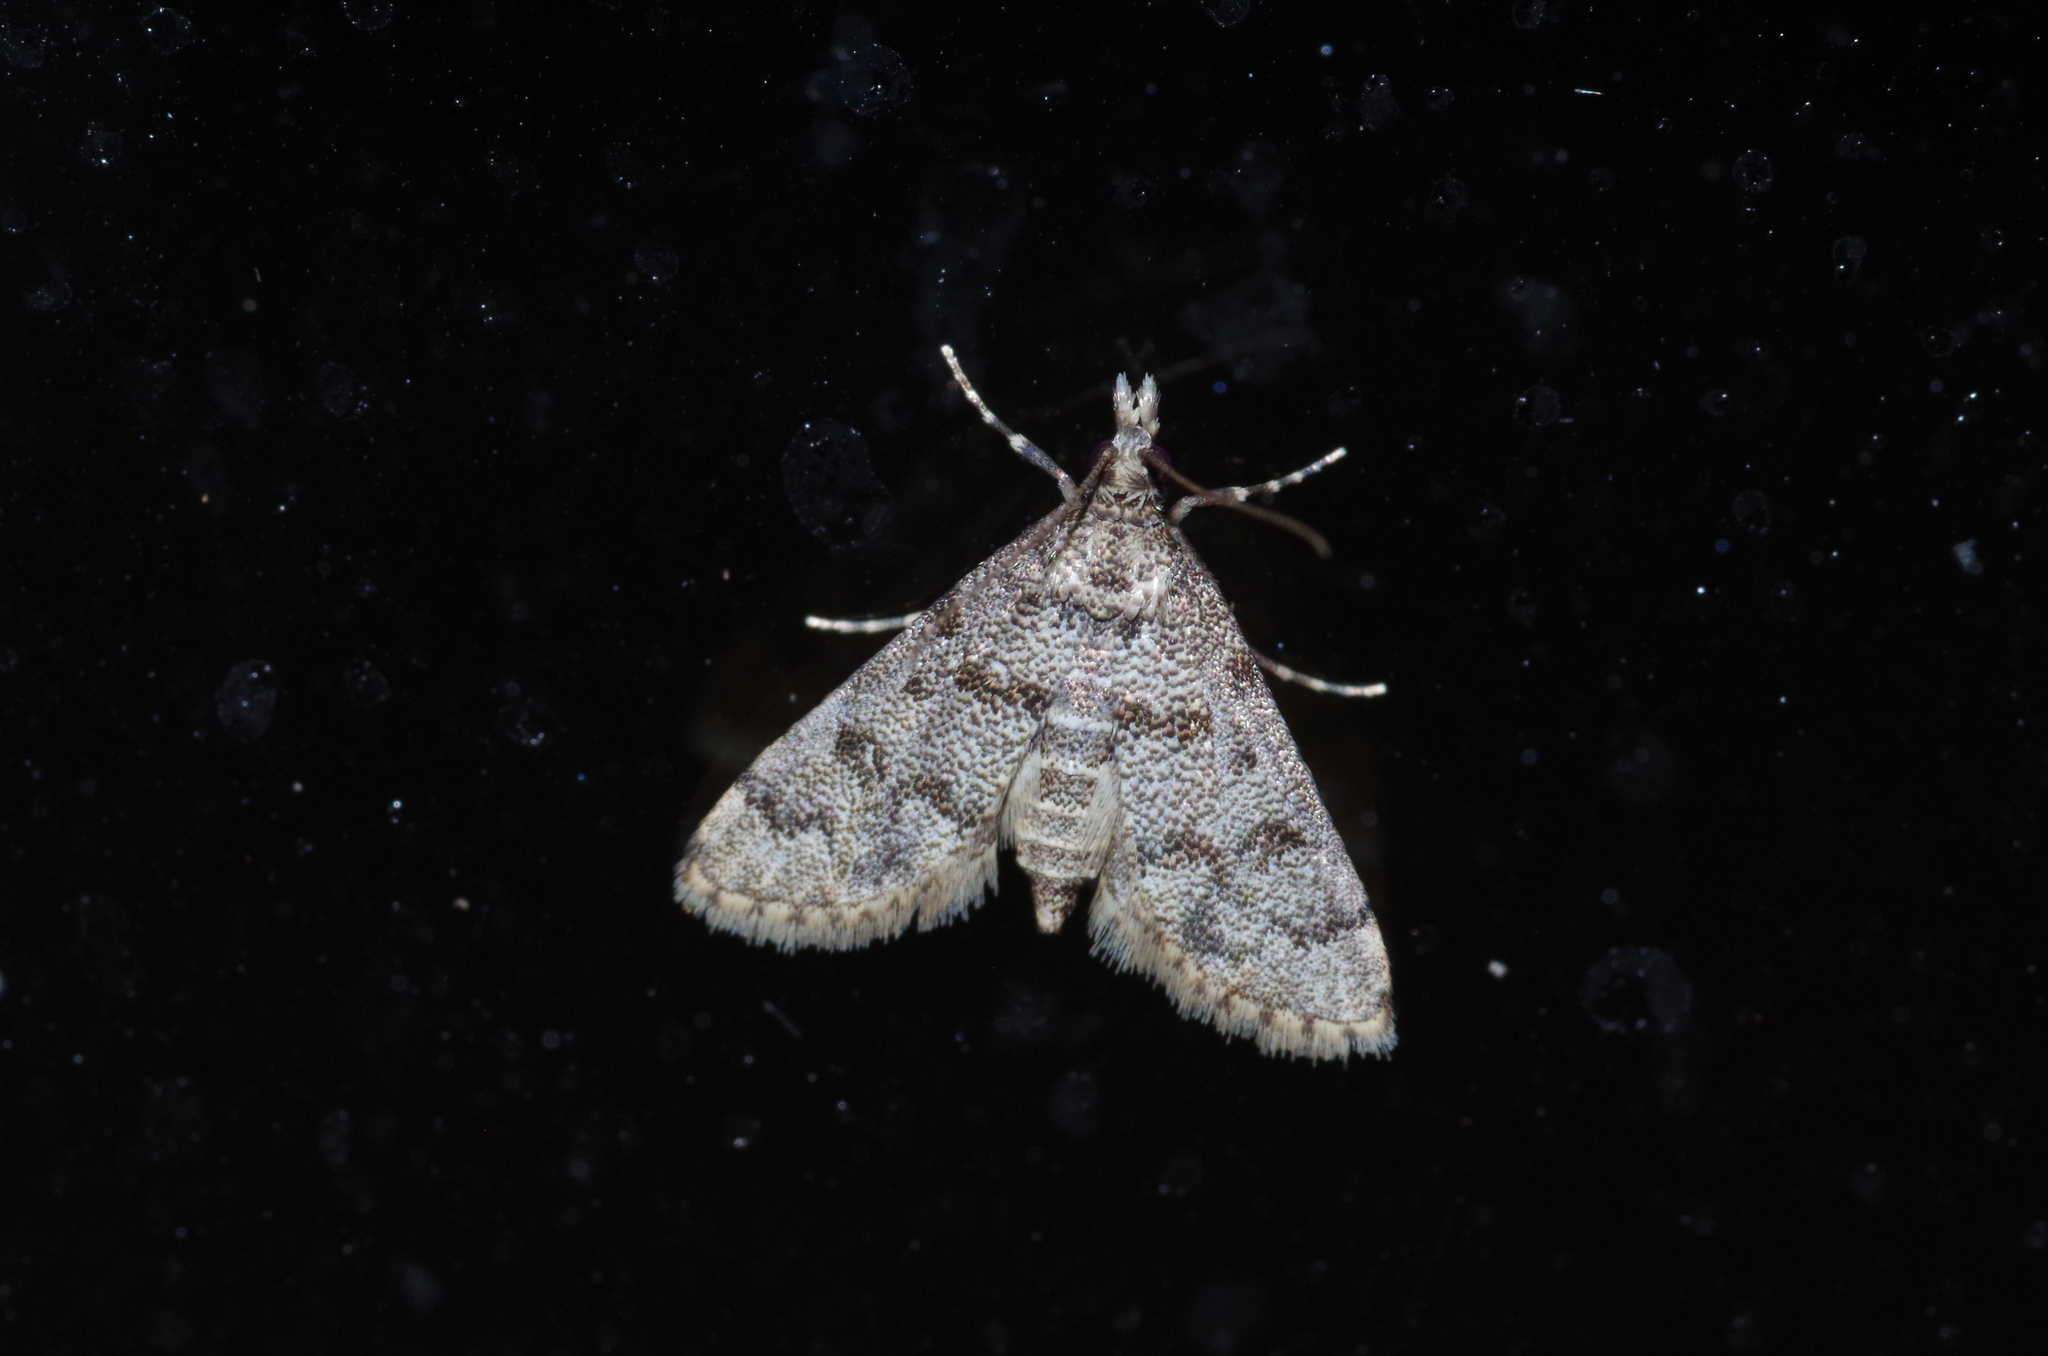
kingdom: Animalia
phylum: Arthropoda
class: Insecta
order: Lepidoptera
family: Crambidae
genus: Stenia
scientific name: Stenia Dolicharthria bruguieralis
